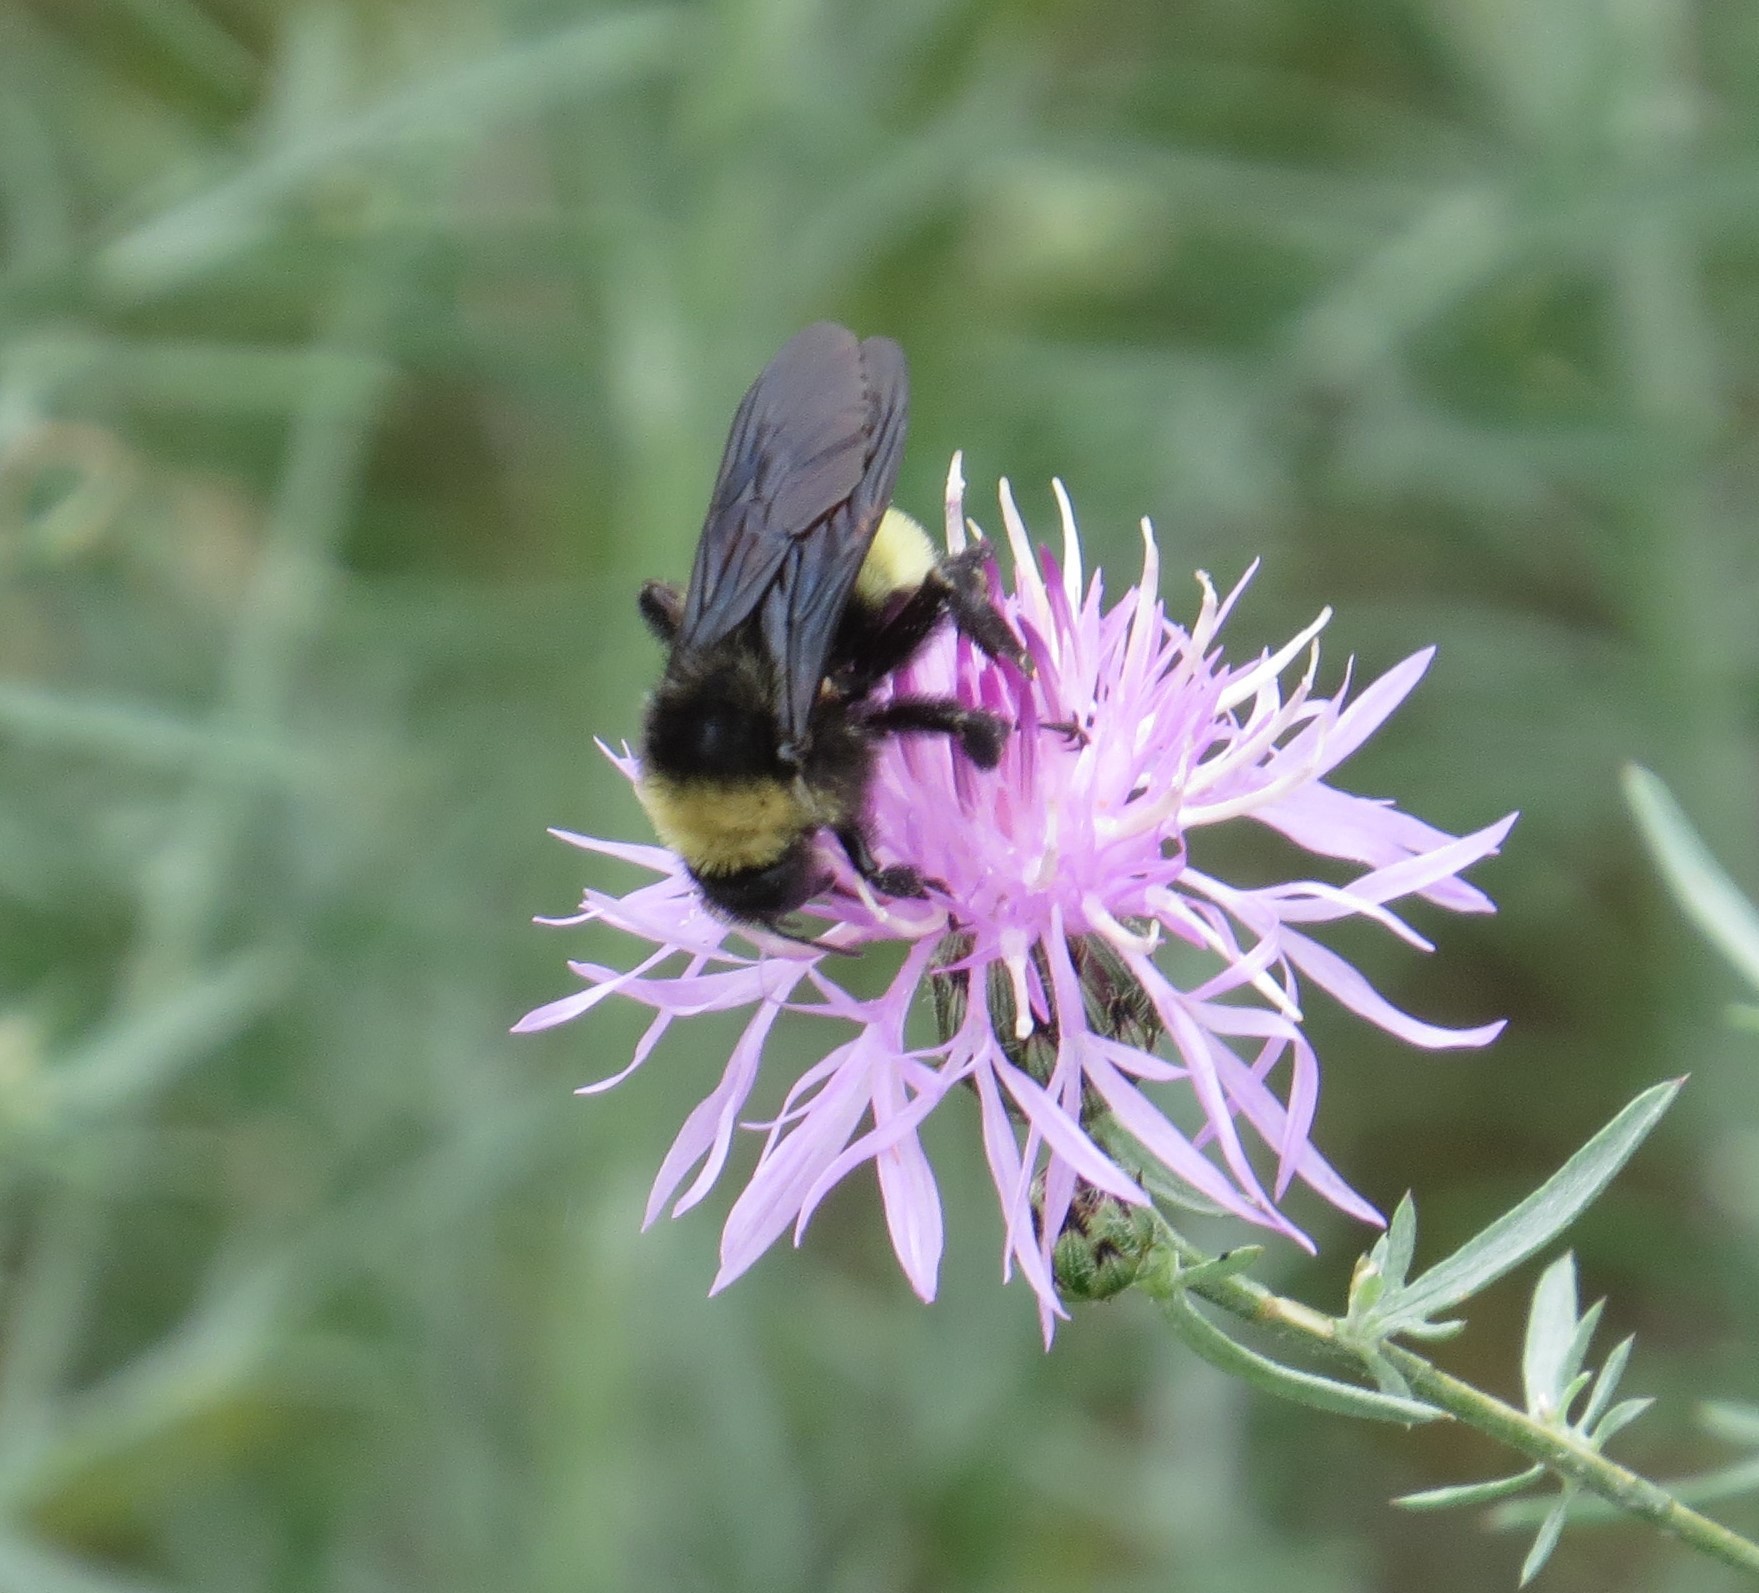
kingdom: Animalia
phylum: Arthropoda
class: Insecta
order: Hymenoptera
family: Apidae
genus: Bombus
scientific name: Bombus pensylvanicus
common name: Bumble bee
